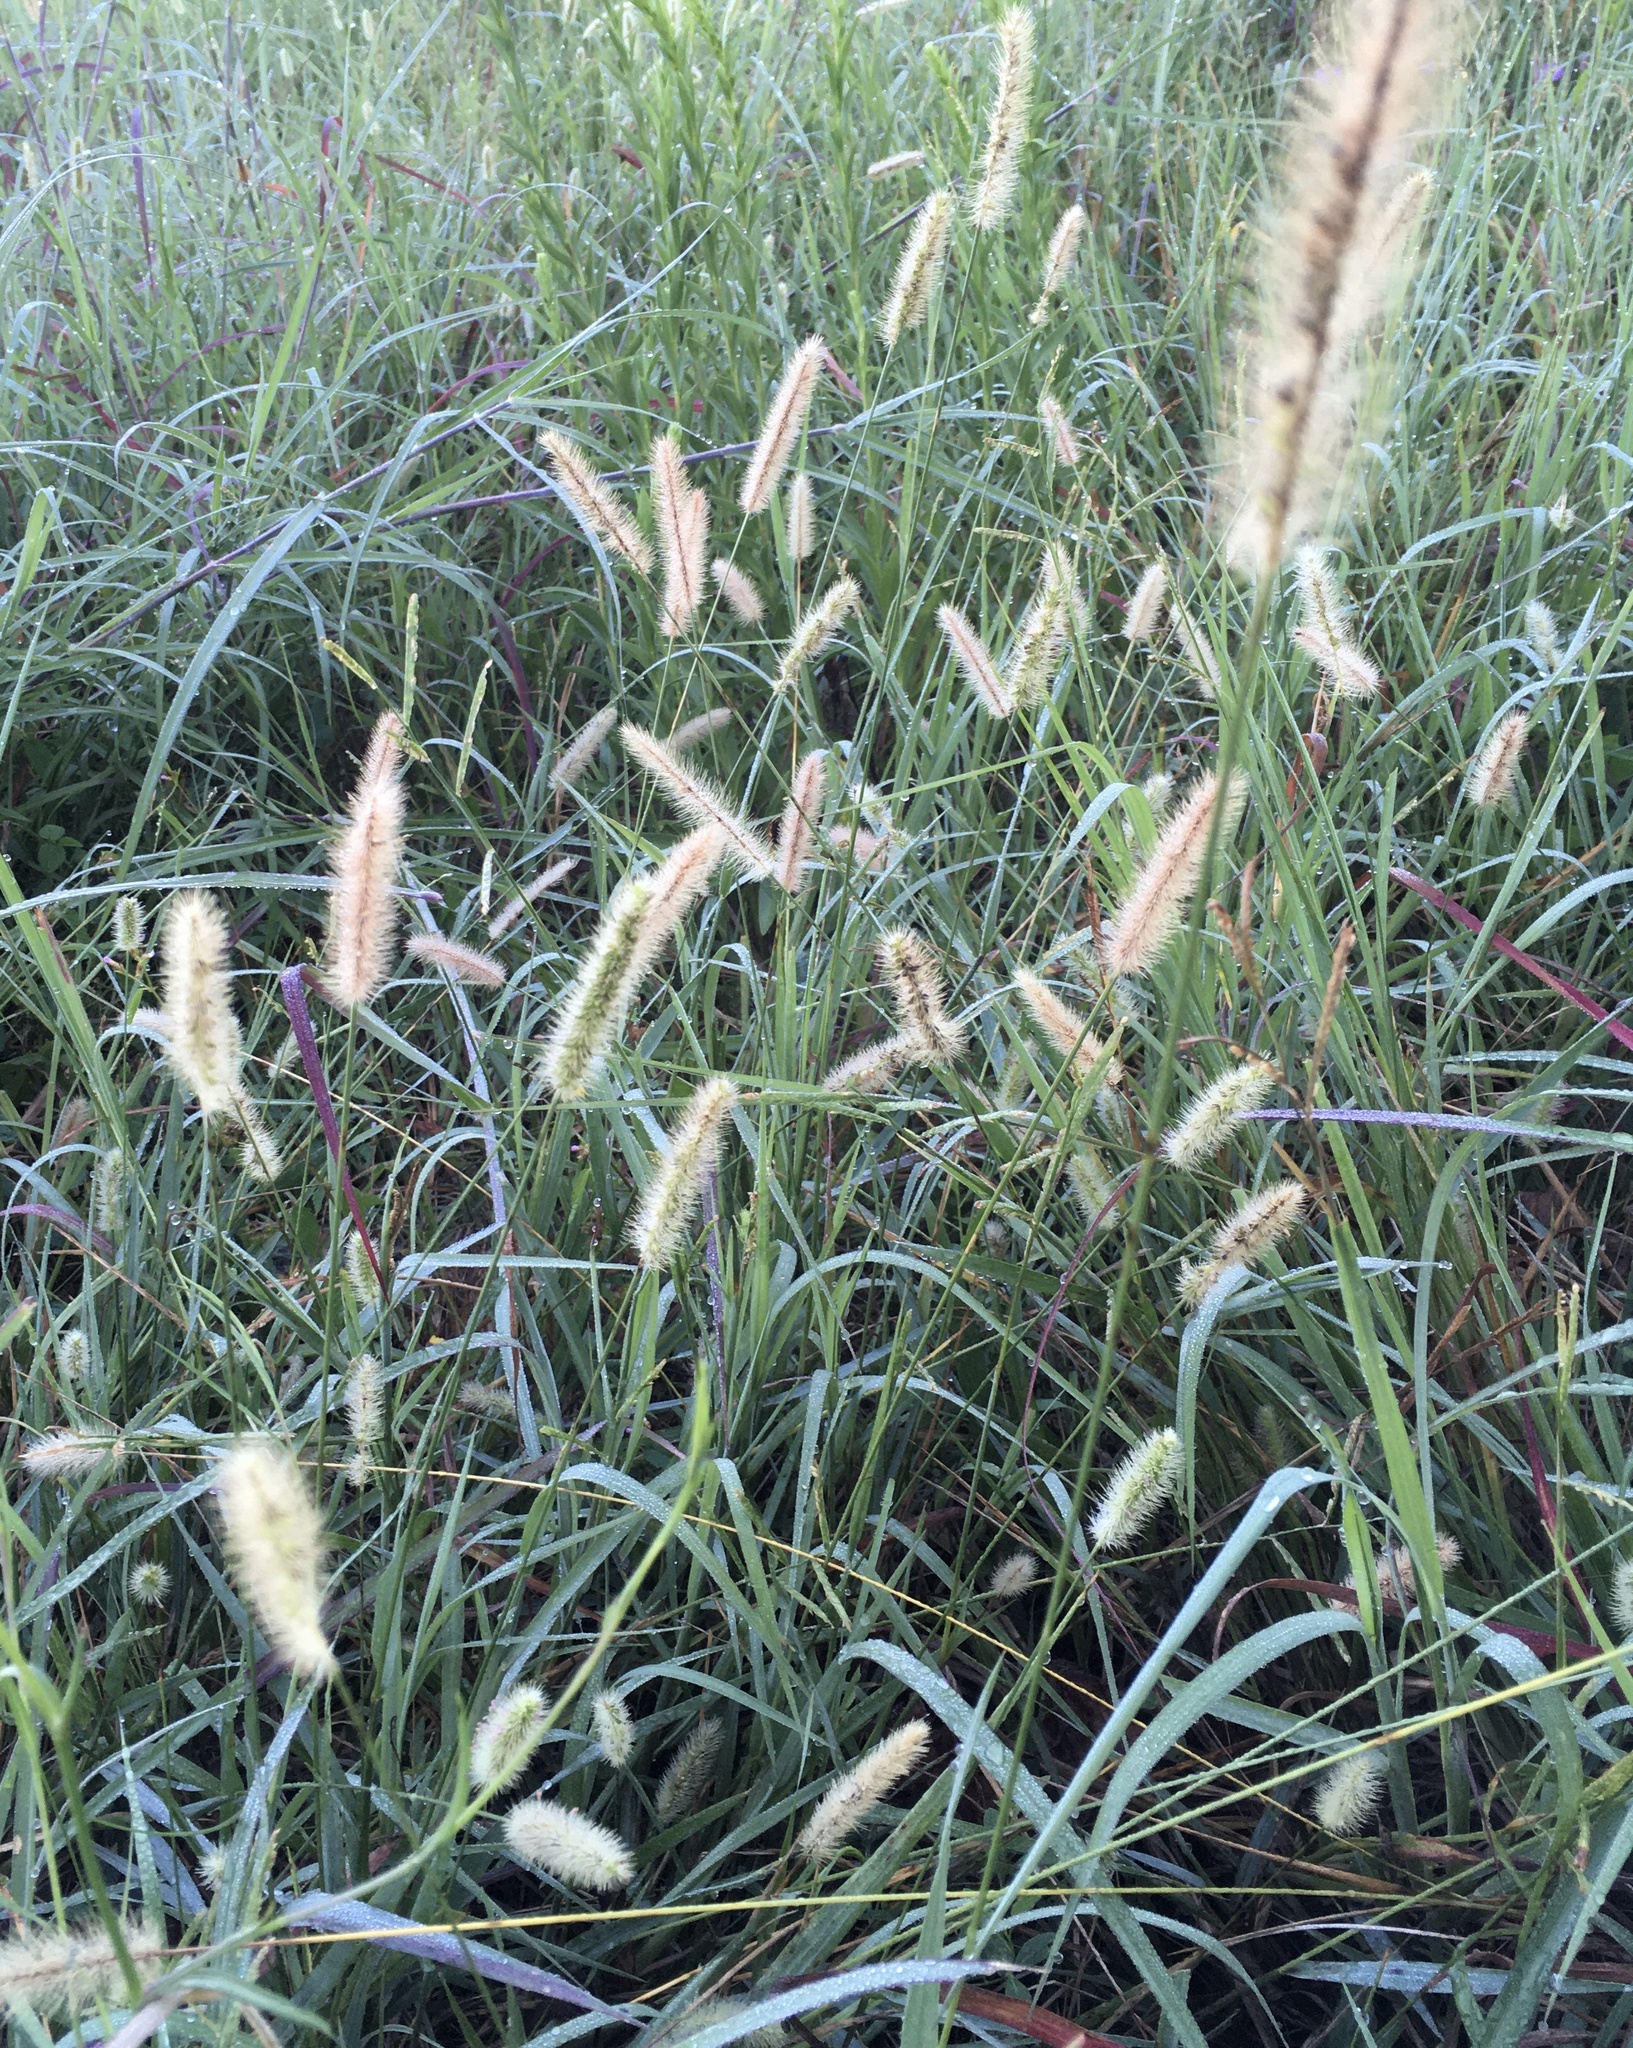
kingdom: Plantae
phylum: Tracheophyta
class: Liliopsida
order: Poales
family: Poaceae
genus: Setaria
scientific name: Setaria parviflora
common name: Knotroot bristle-grass
